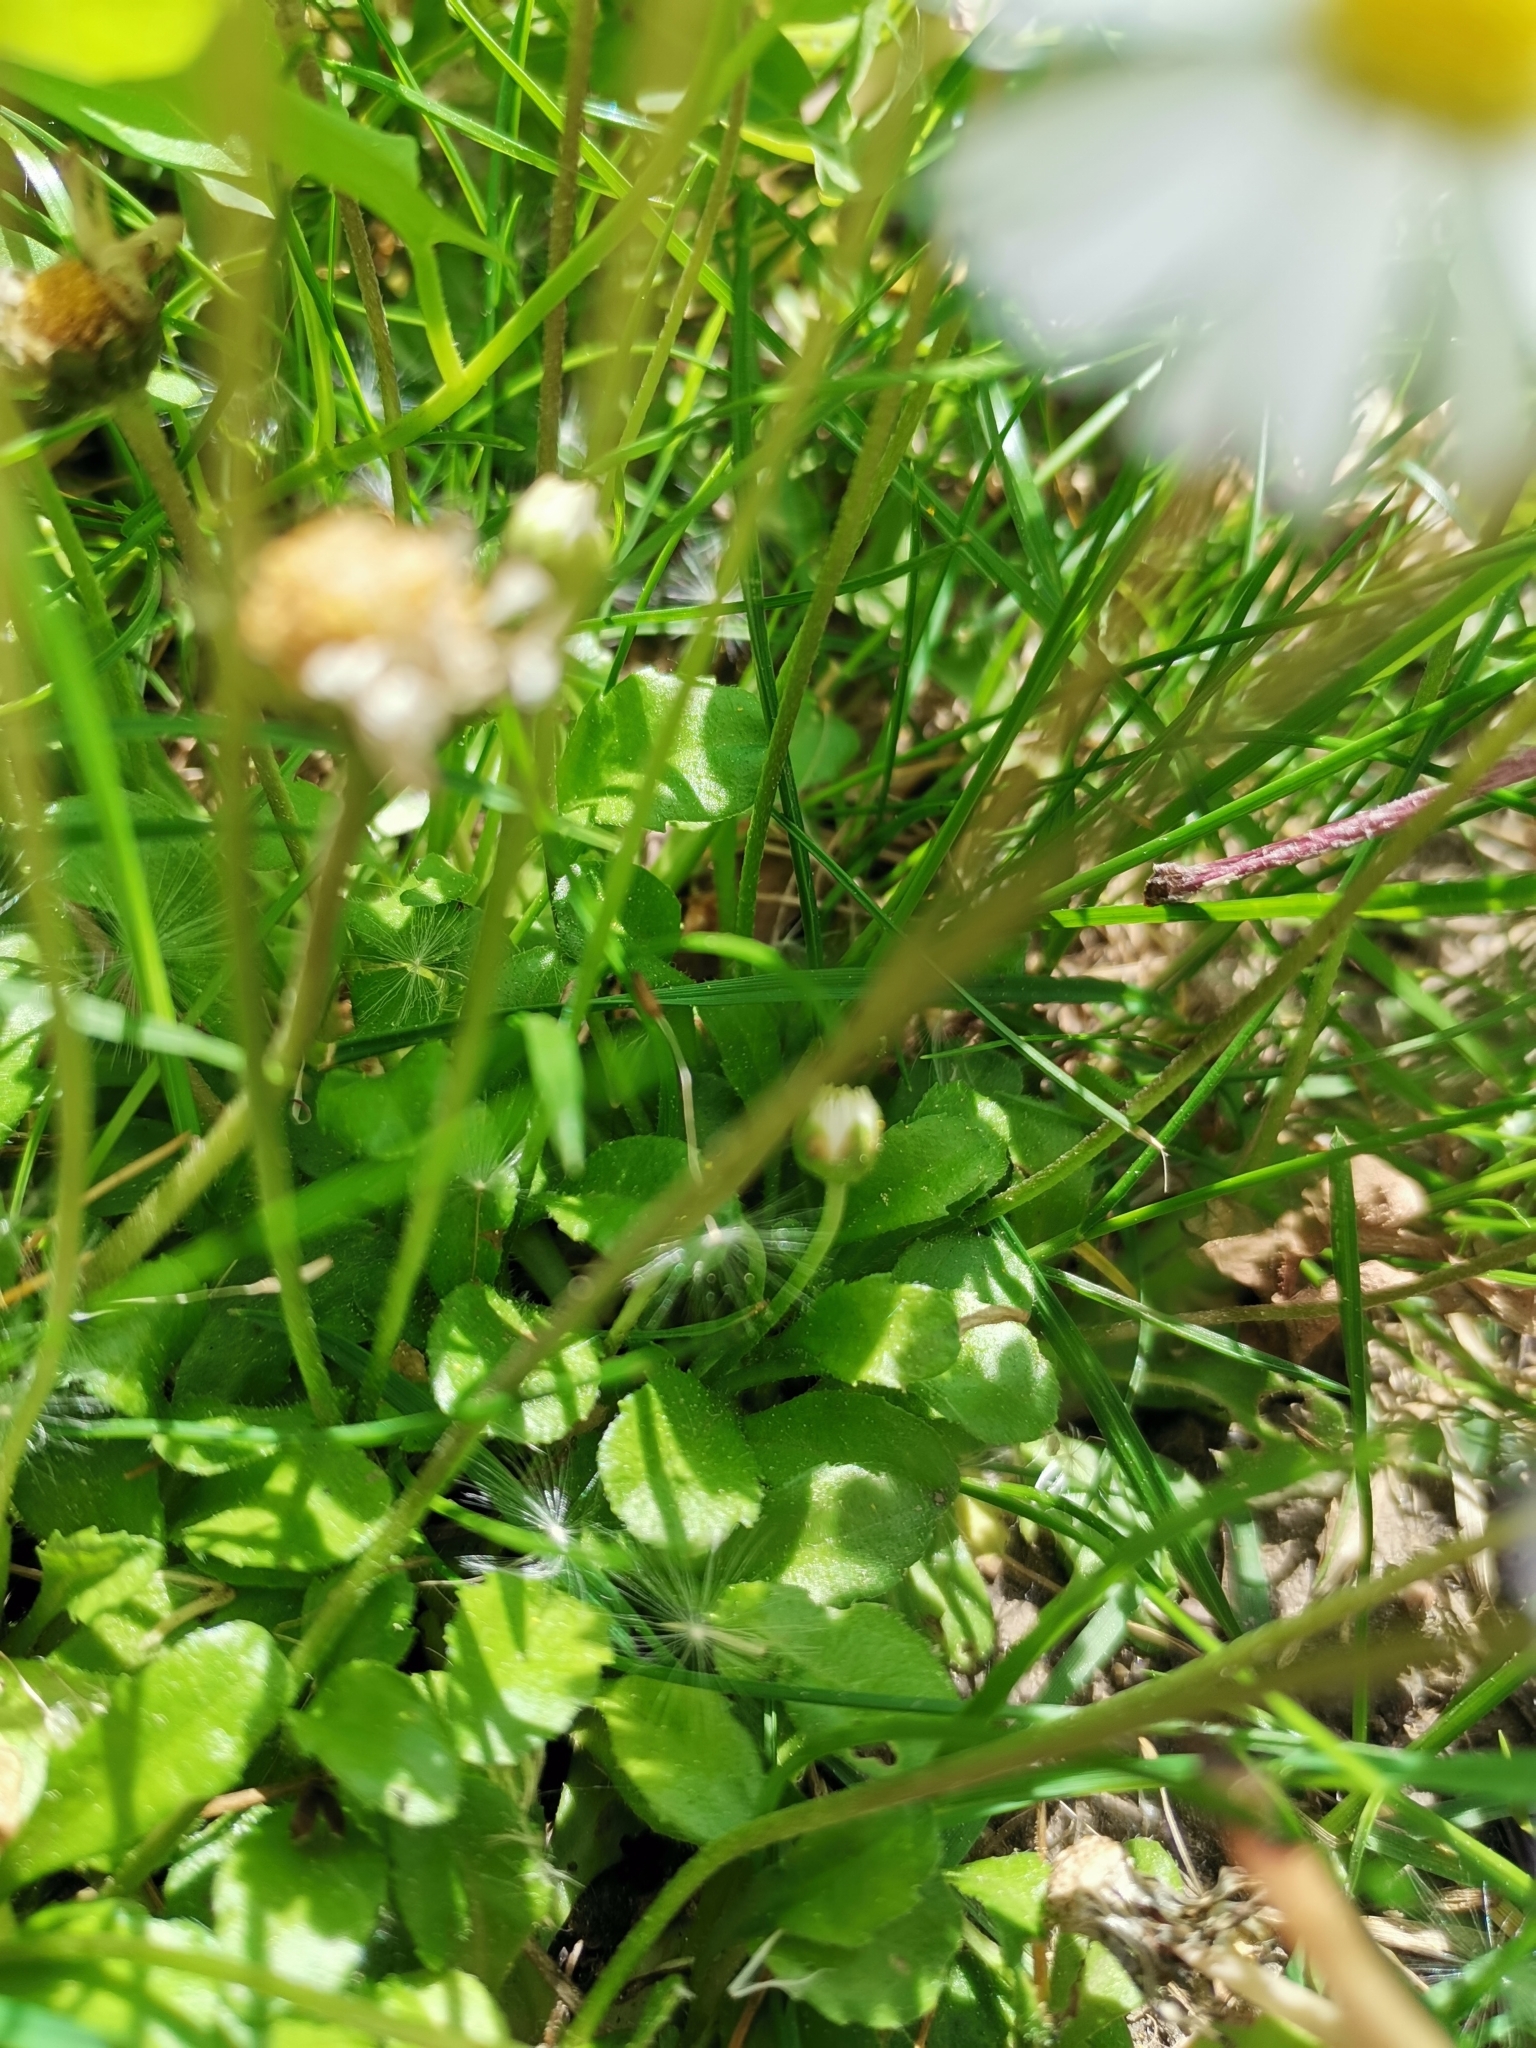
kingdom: Plantae
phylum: Tracheophyta
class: Magnoliopsida
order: Asterales
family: Asteraceae
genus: Bellis
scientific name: Bellis perennis
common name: Lawndaisy
